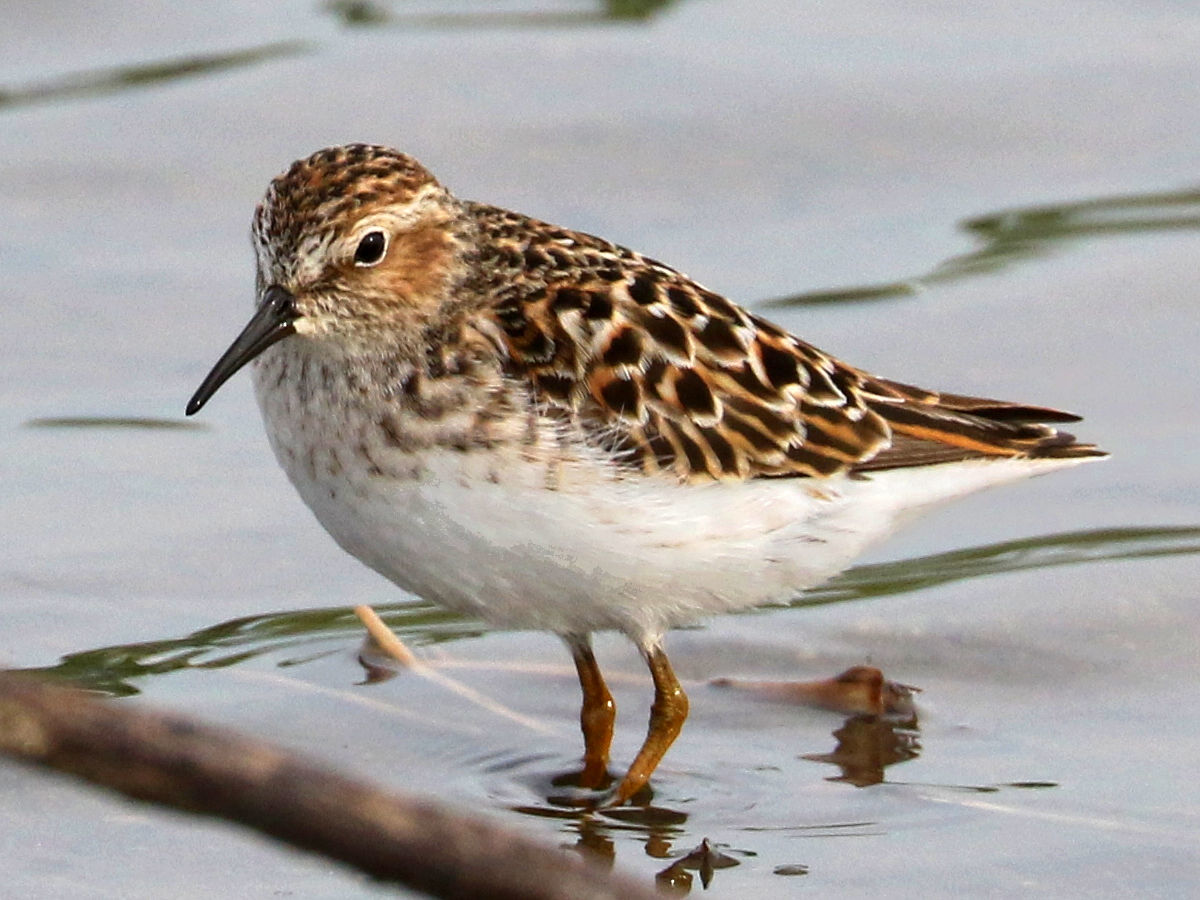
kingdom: Animalia
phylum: Chordata
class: Aves
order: Charadriiformes
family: Scolopacidae
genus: Calidris
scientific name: Calidris minutilla
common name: Least sandpiper
